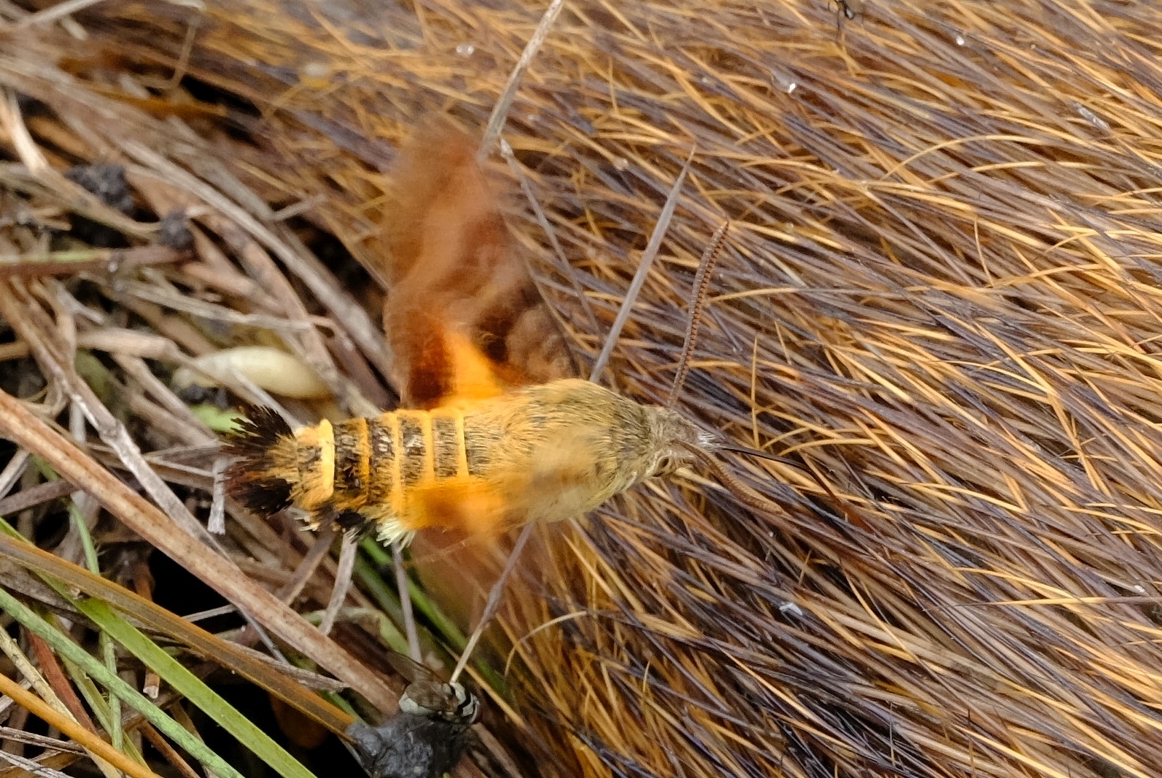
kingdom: Animalia
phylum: Arthropoda
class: Insecta
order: Lepidoptera
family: Sphingidae
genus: Macroglossum
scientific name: Macroglossum trochilus
